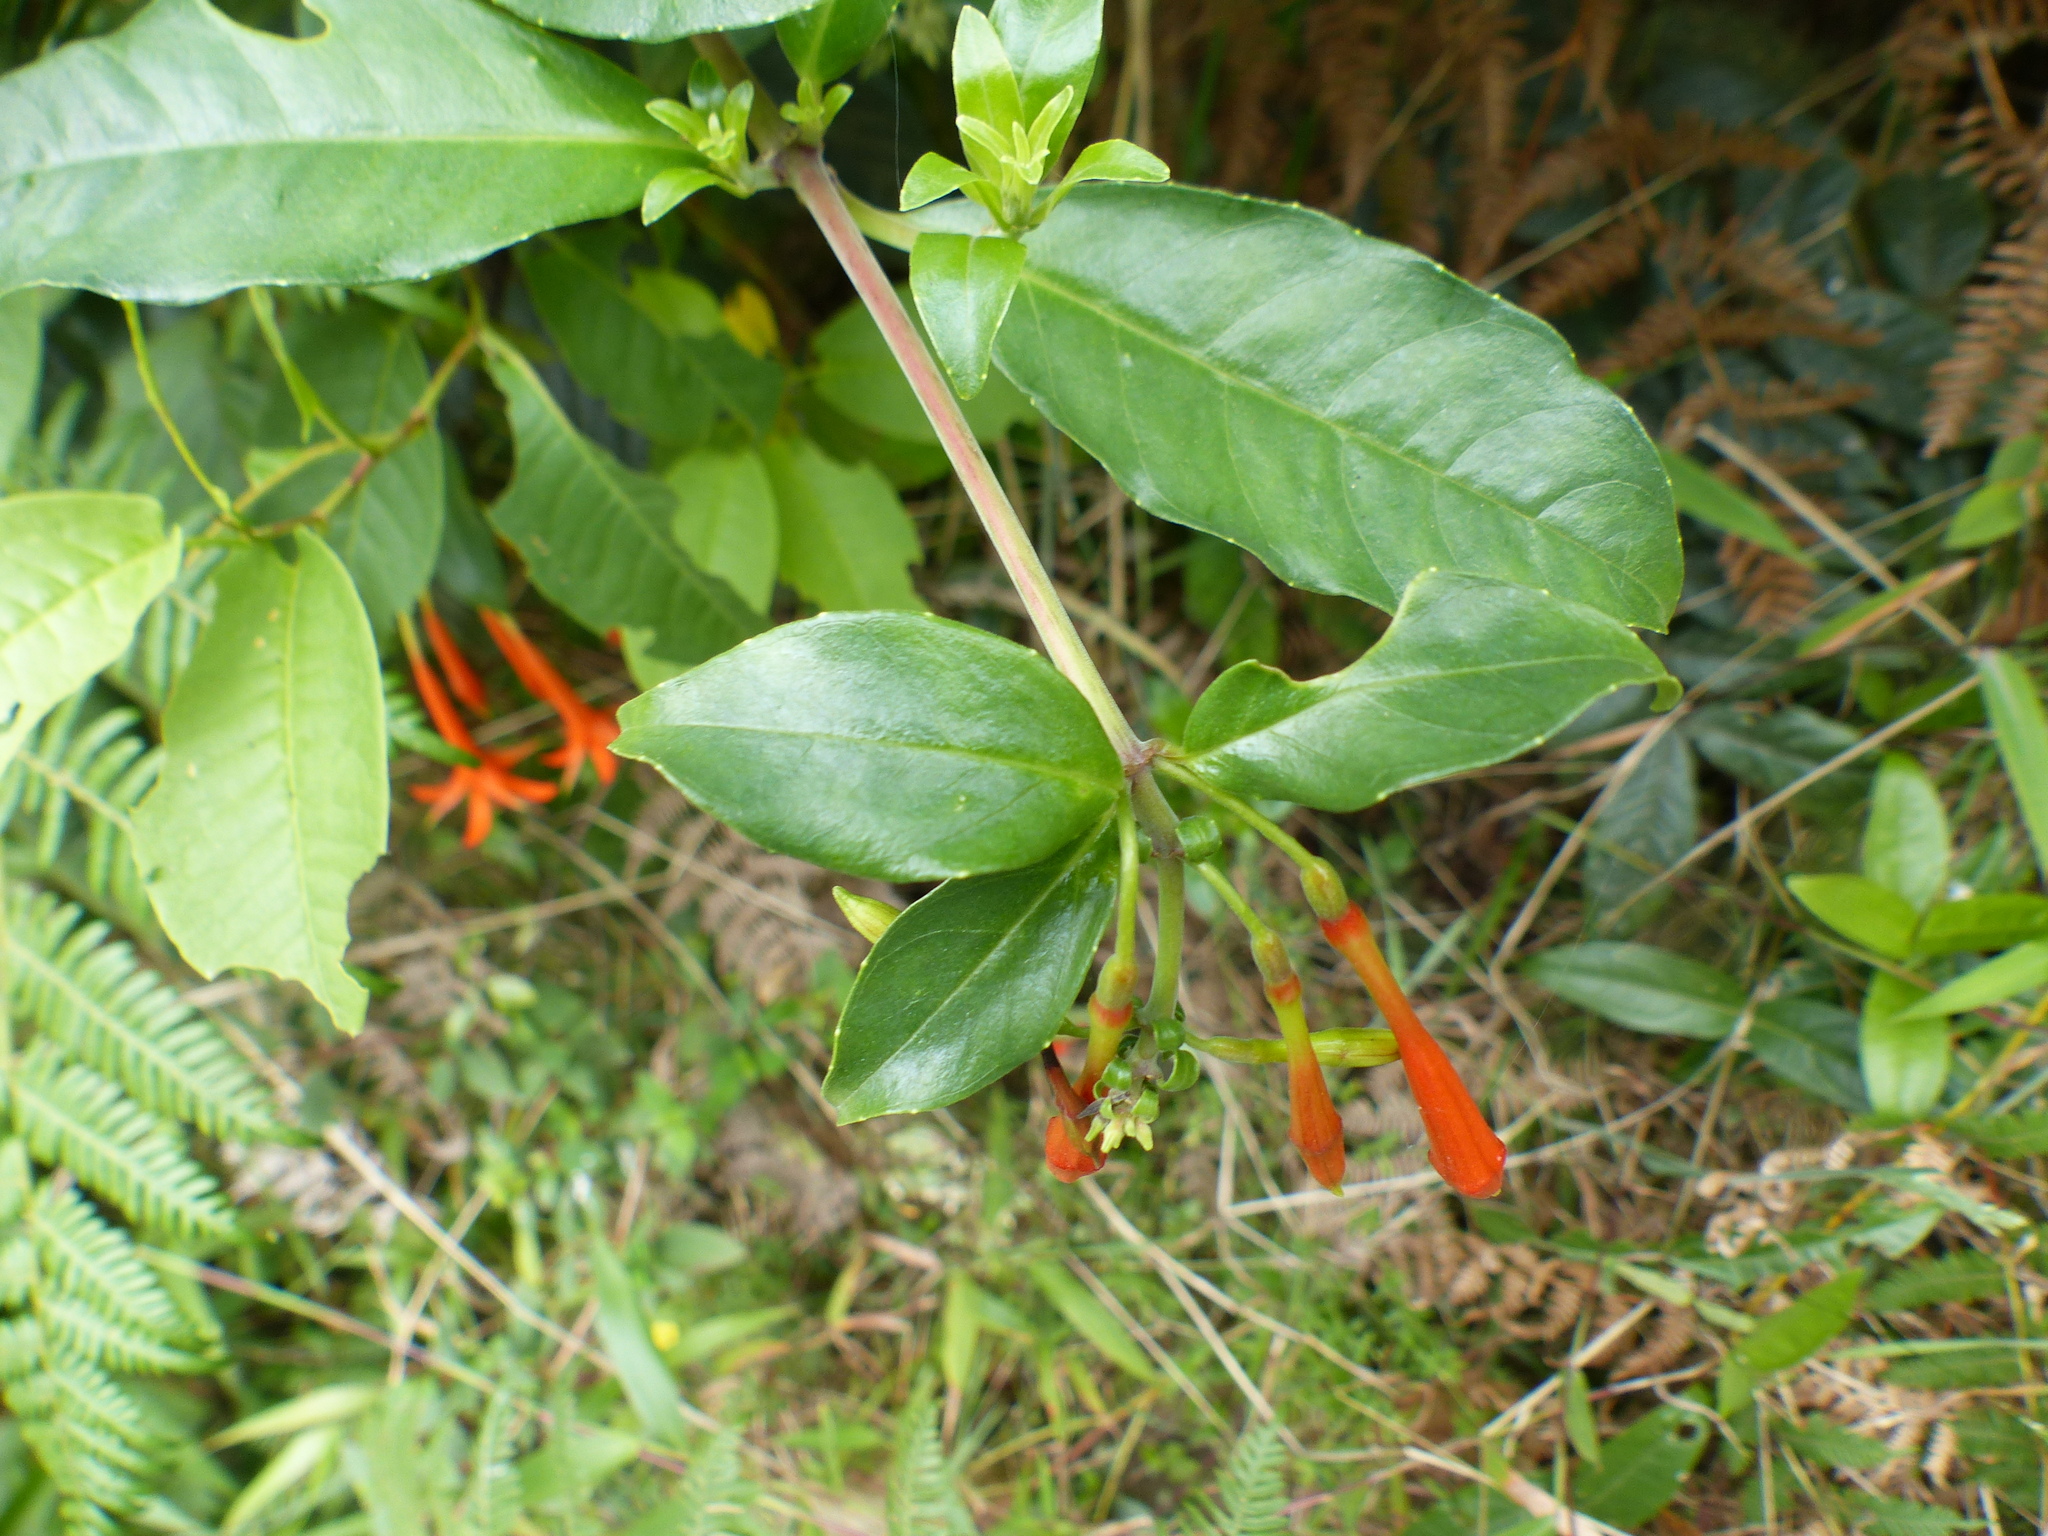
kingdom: Plantae
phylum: Tracheophyta
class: Magnoliopsida
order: Myrtales
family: Onagraceae
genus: Fuchsia
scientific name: Fuchsia venusta
